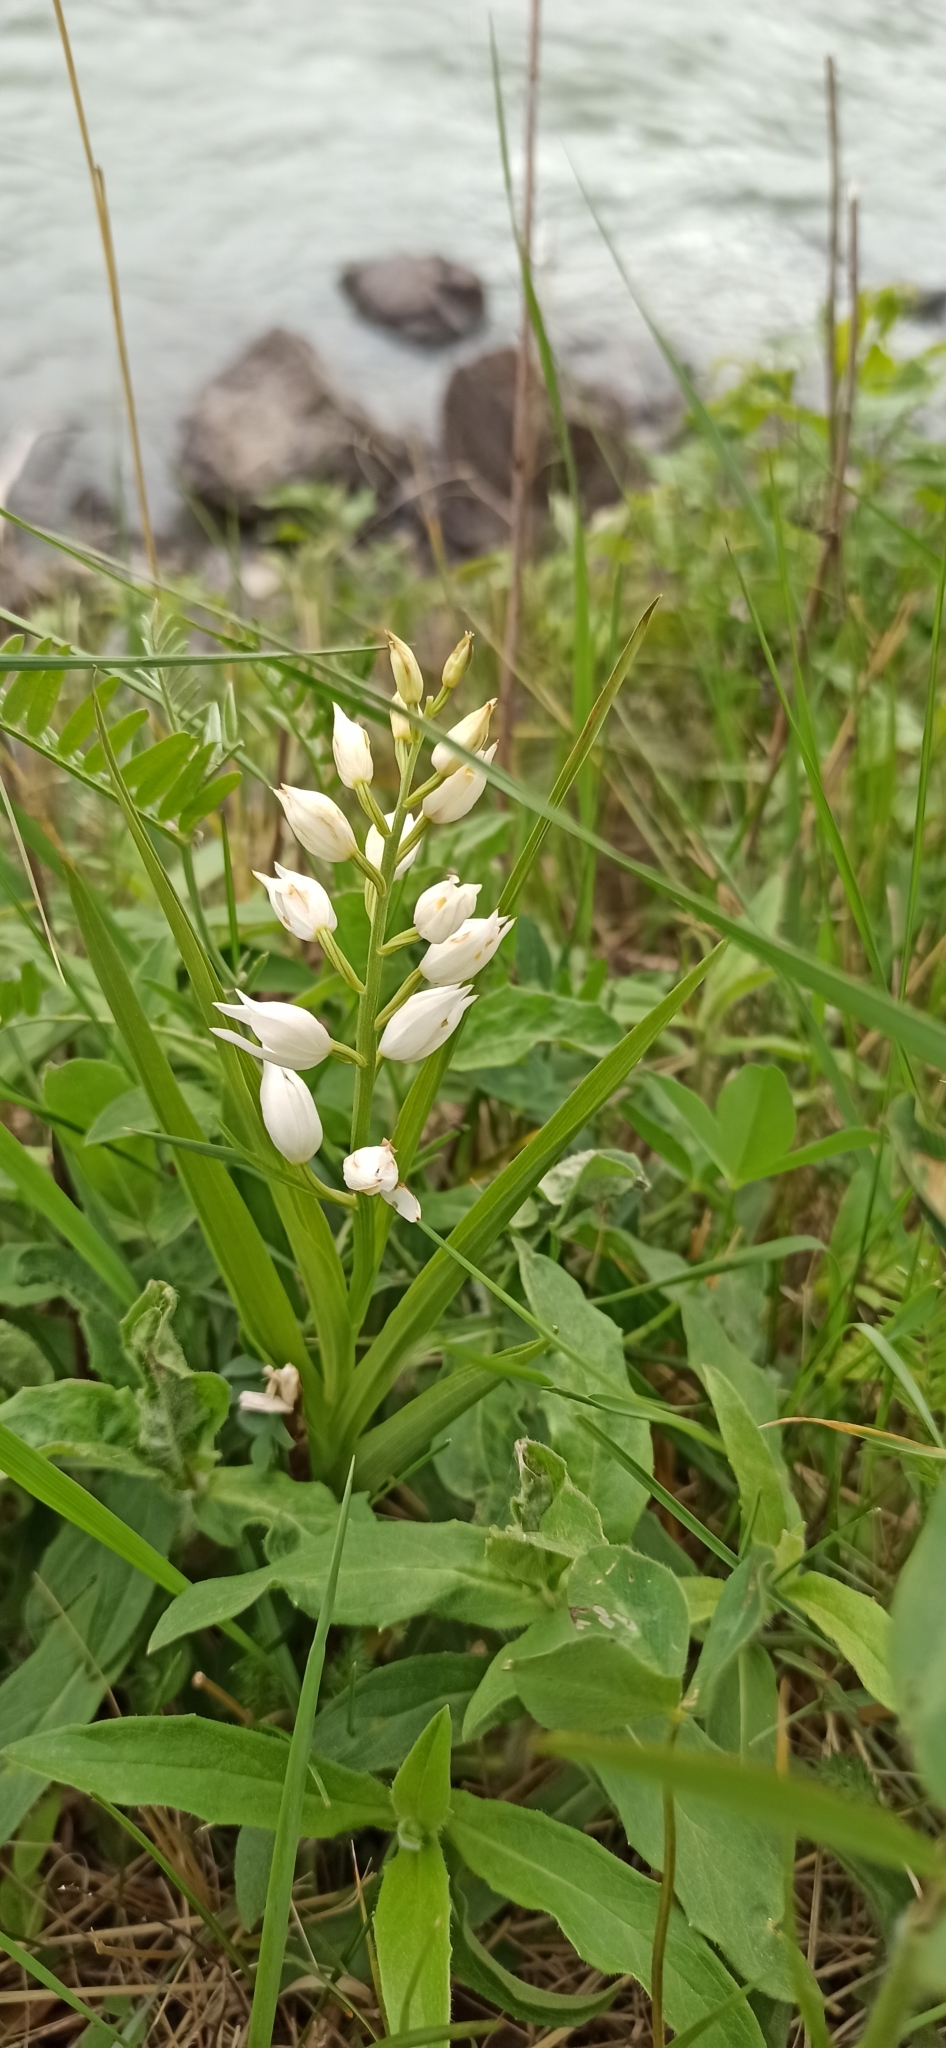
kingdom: Plantae
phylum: Tracheophyta
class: Liliopsida
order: Asparagales
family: Orchidaceae
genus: Cephalanthera
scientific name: Cephalanthera longifolia
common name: Narrow-leaved helleborine
